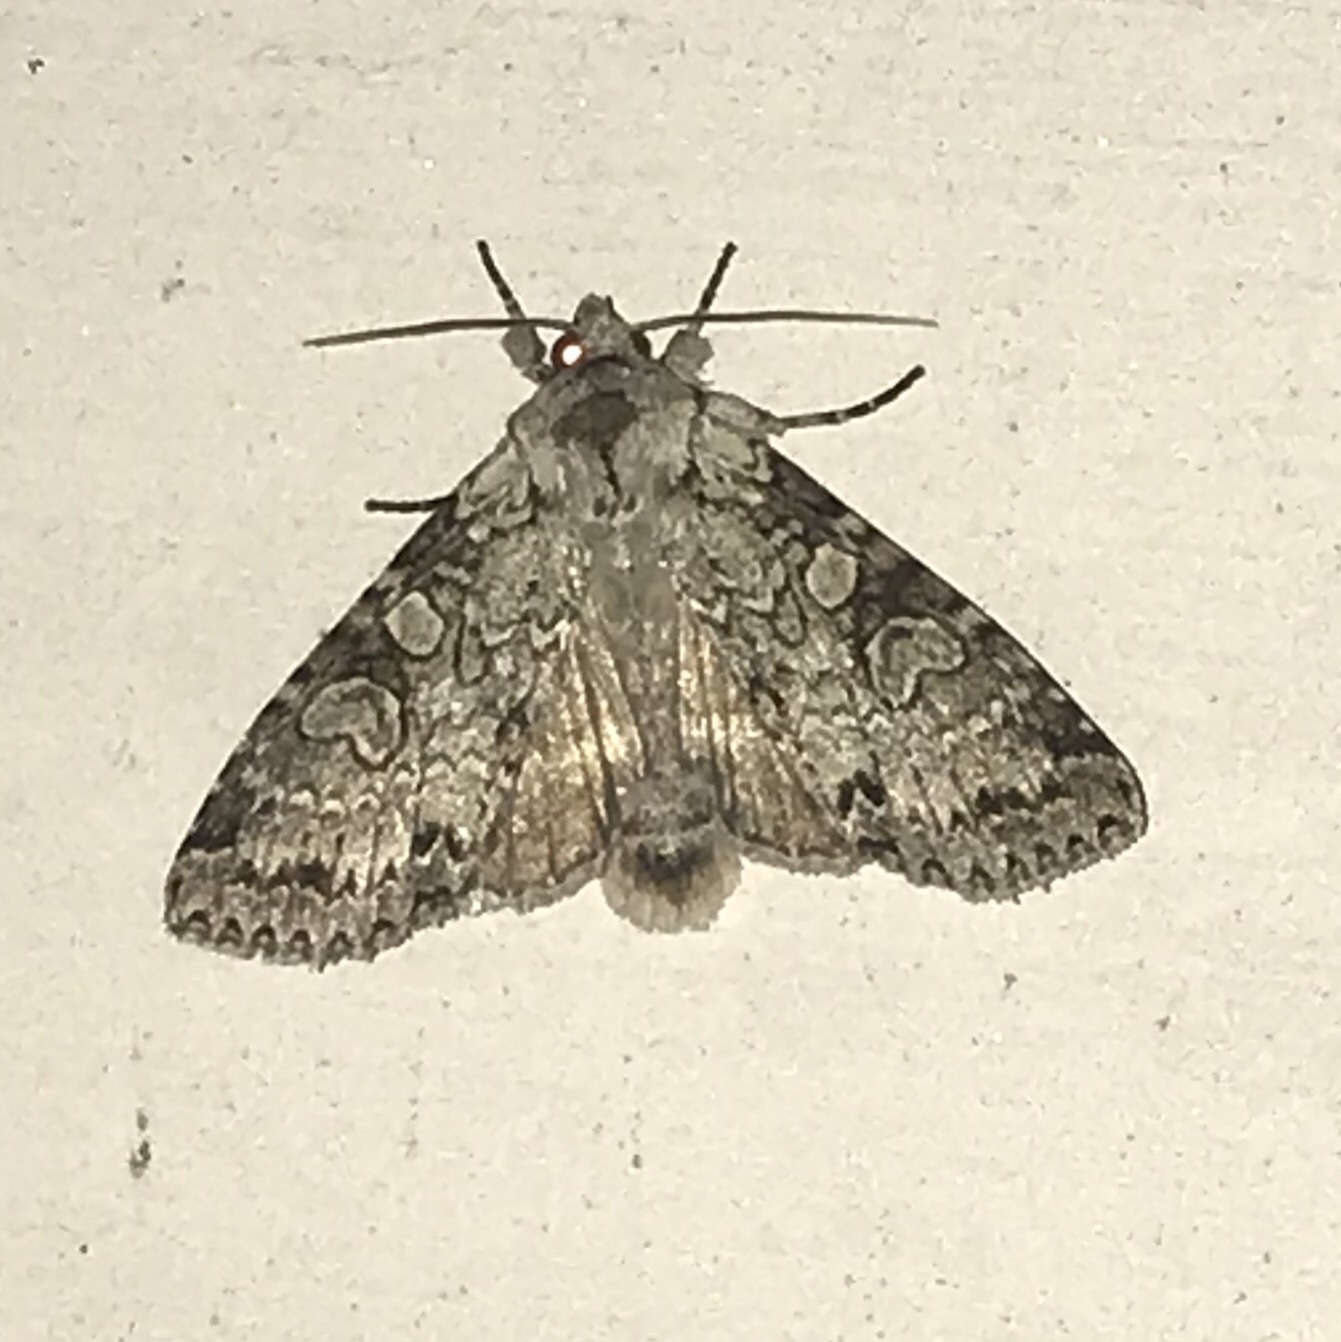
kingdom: Animalia
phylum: Arthropoda
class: Insecta
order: Lepidoptera
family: Noctuidae
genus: Polia
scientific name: Polia nimbosa
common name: Stormy arches
